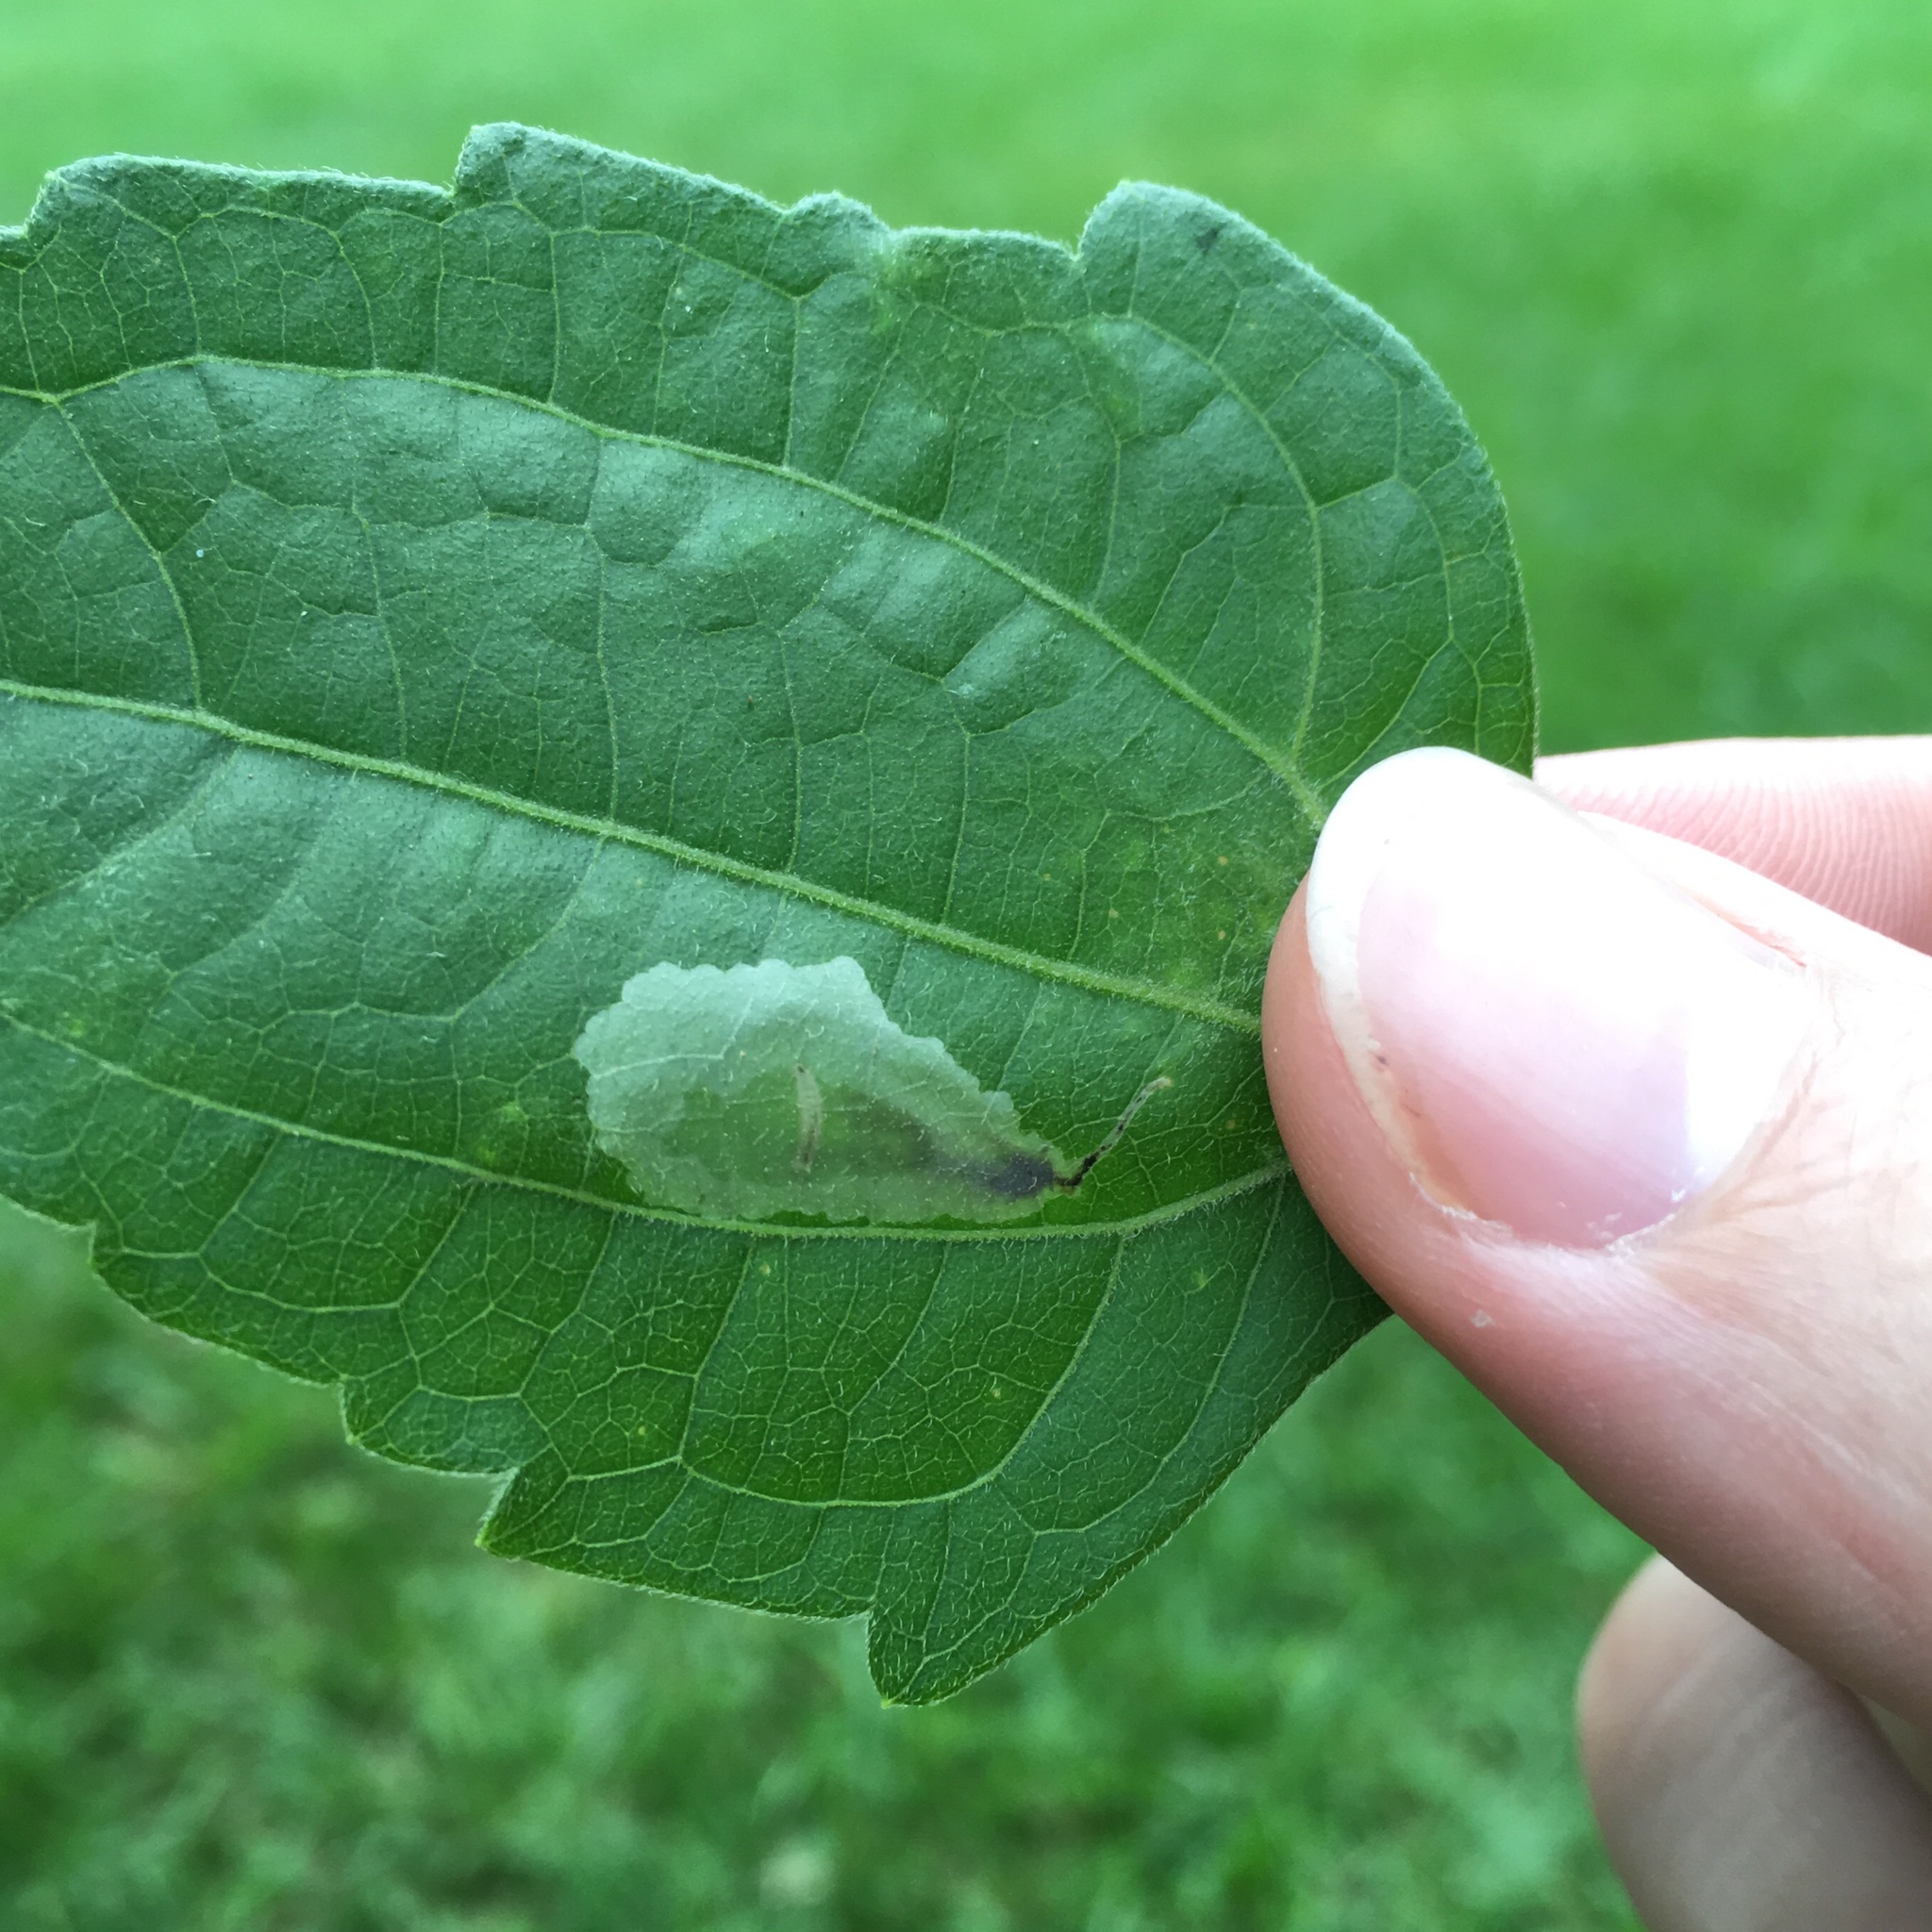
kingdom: Animalia
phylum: Arthropoda
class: Insecta
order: Diptera
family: Agromyzidae
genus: Calycomyza
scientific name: Calycomyza eupatorivora
